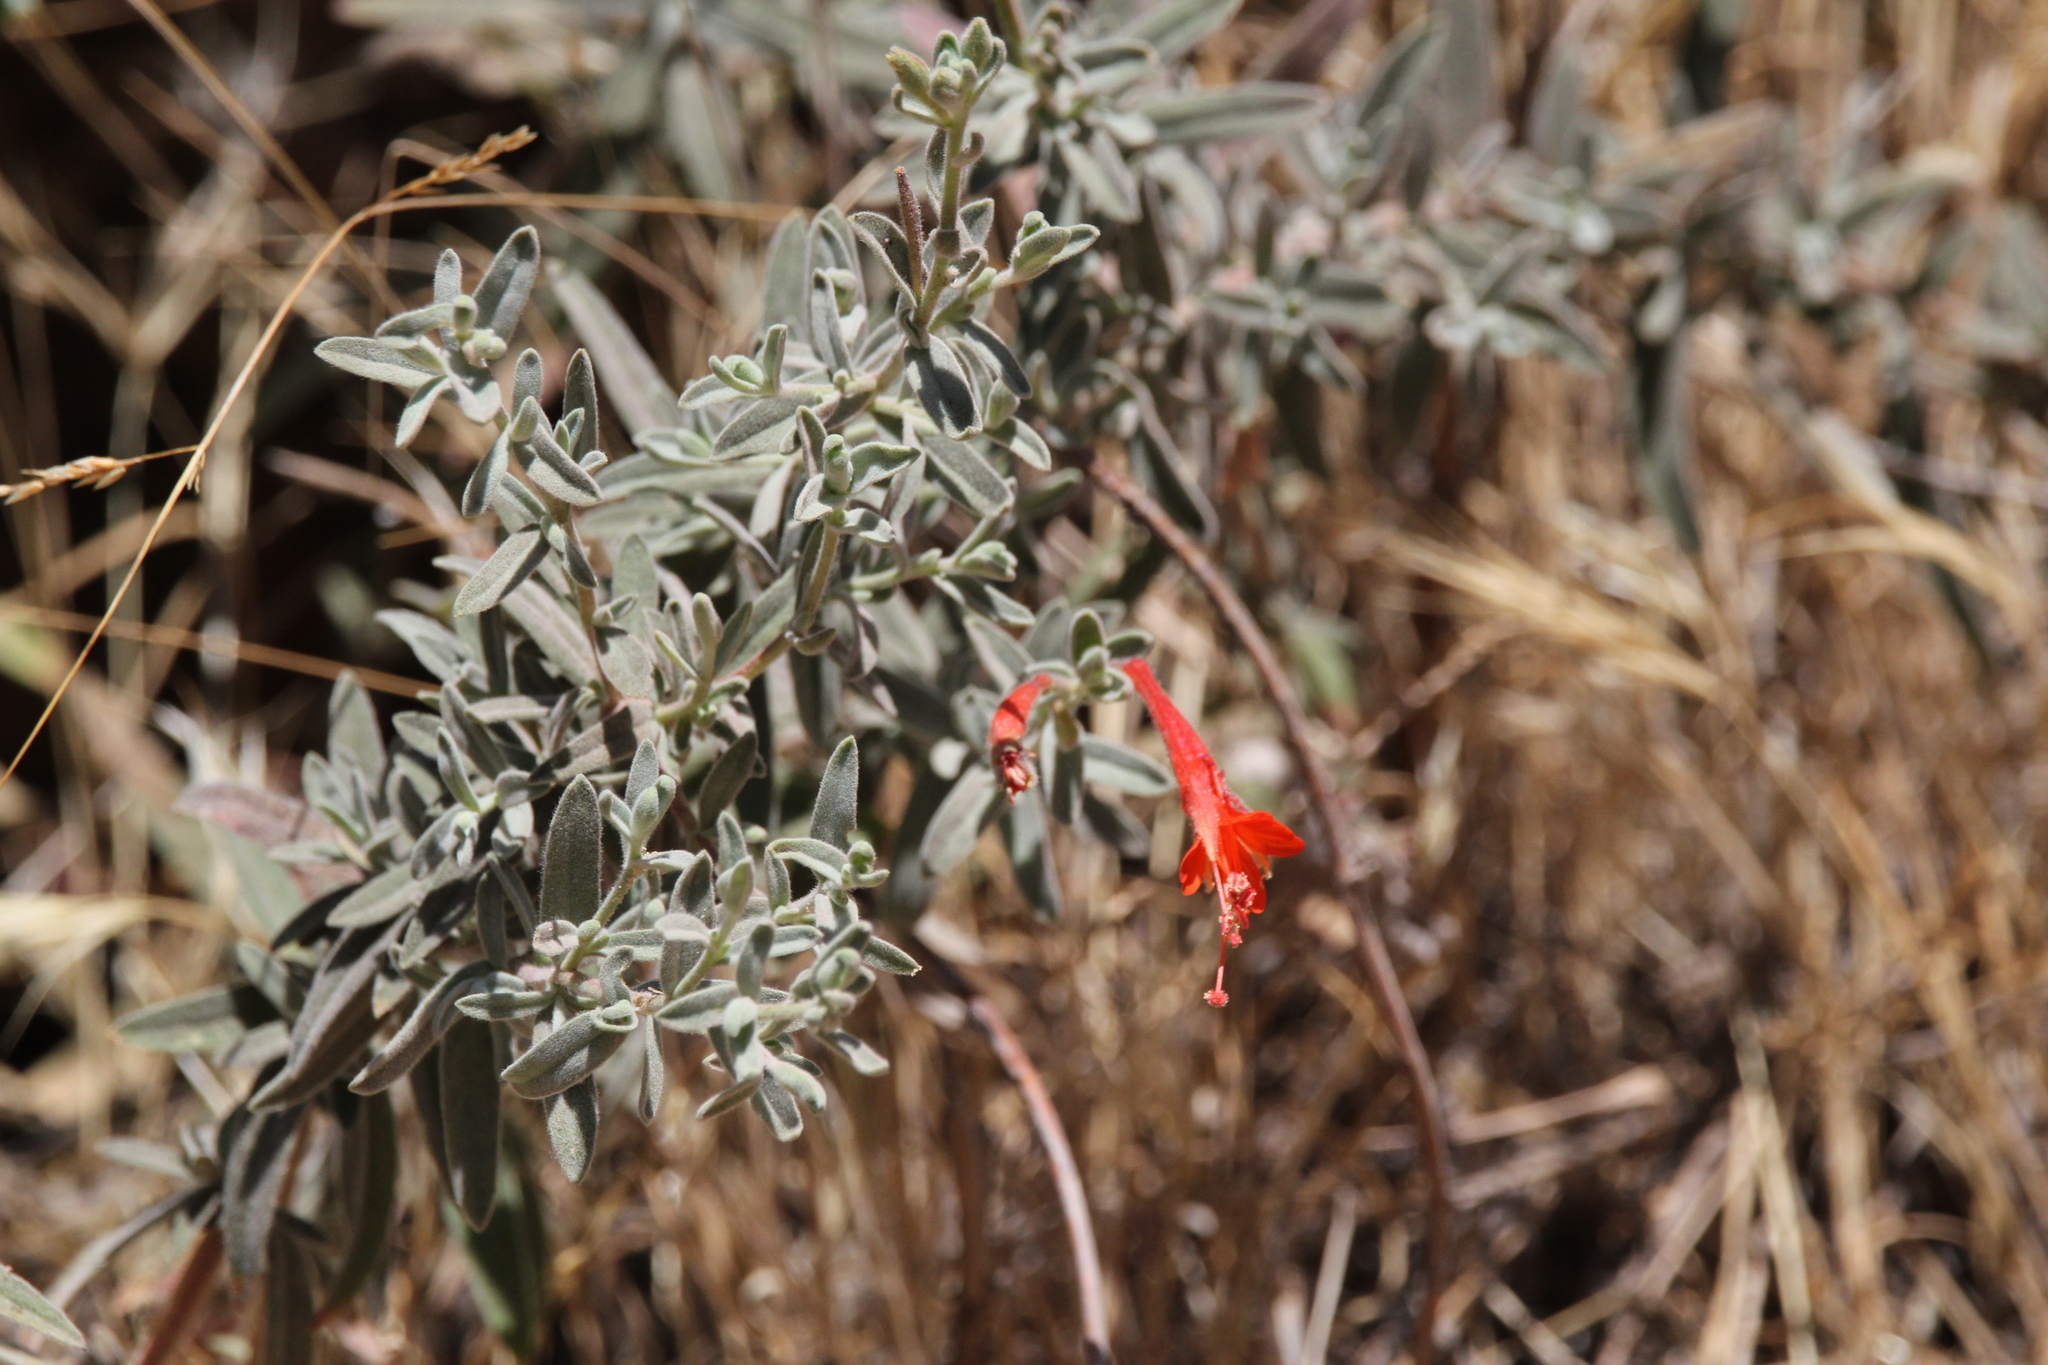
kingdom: Plantae
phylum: Tracheophyta
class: Magnoliopsida
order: Myrtales
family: Onagraceae
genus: Epilobium
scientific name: Epilobium canum
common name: California-fuchsia
